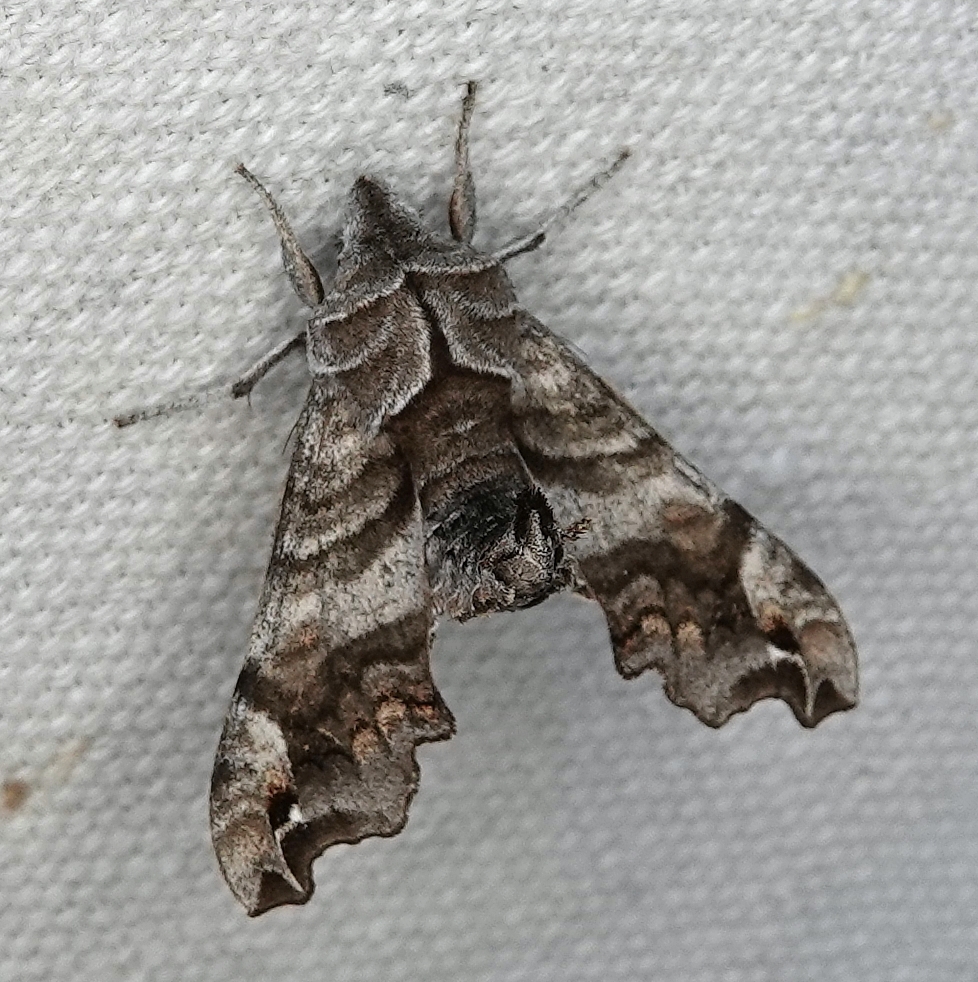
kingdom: Animalia
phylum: Arthropoda
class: Insecta
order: Lepidoptera
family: Sphingidae
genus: Deidamia
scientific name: Deidamia inscriptum
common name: Lettered sphinx
